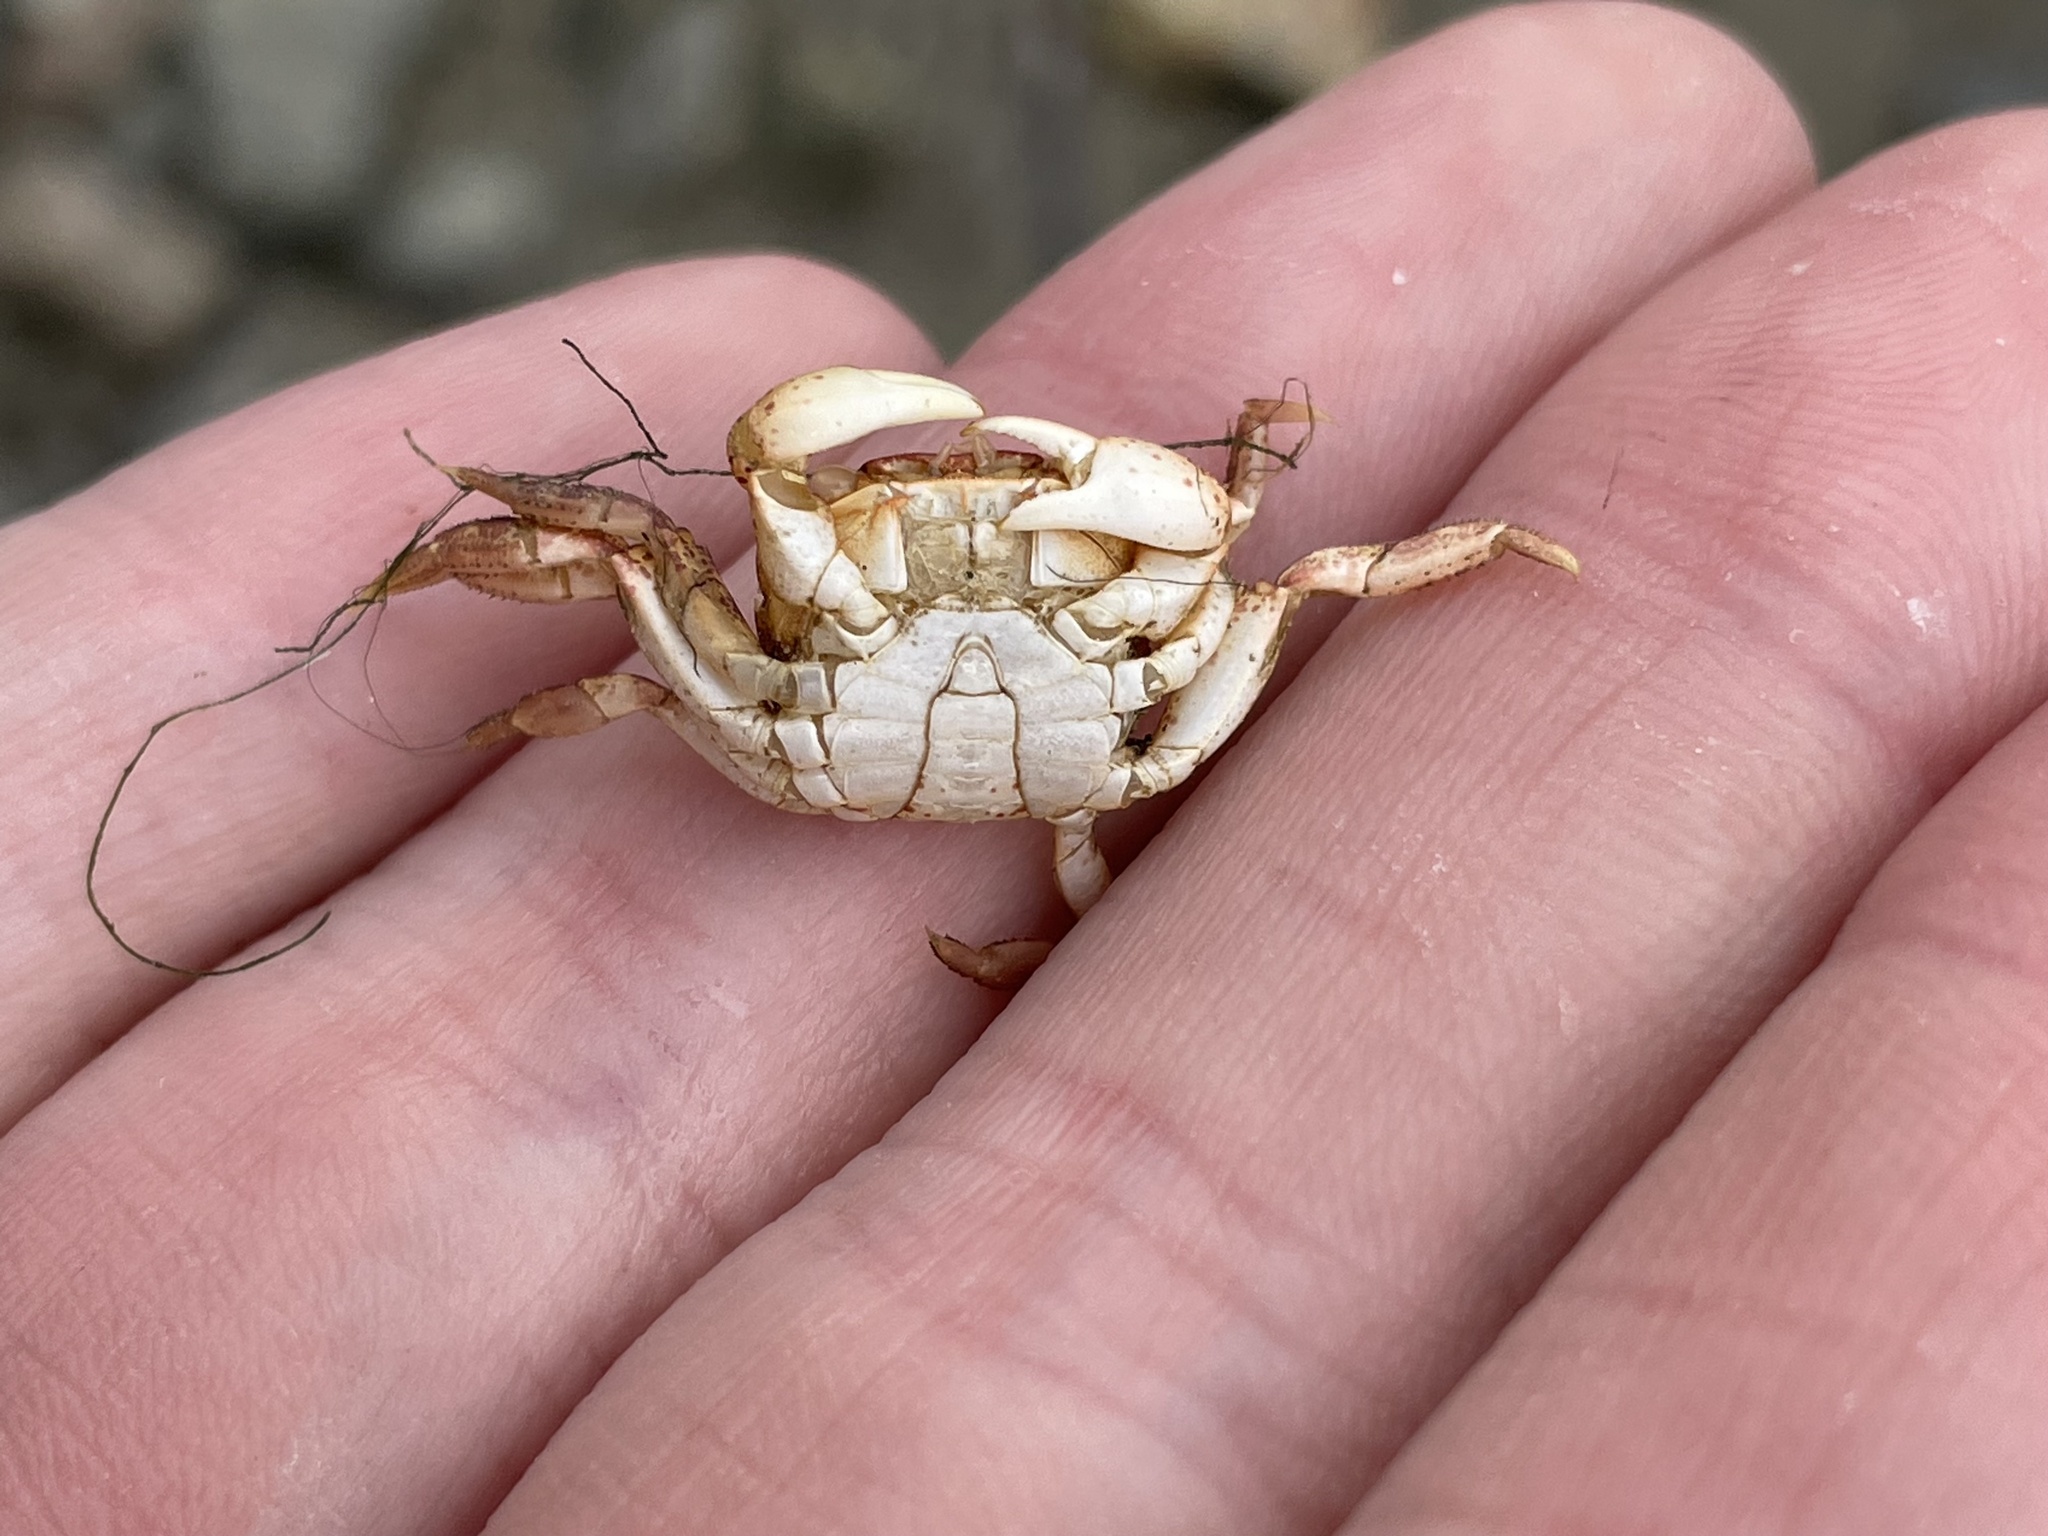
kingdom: Animalia
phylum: Arthropoda
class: Malacostraca
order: Decapoda
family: Varunidae
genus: Hemigrapsus
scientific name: Hemigrapsus sanguineus
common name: Asian shore crab
